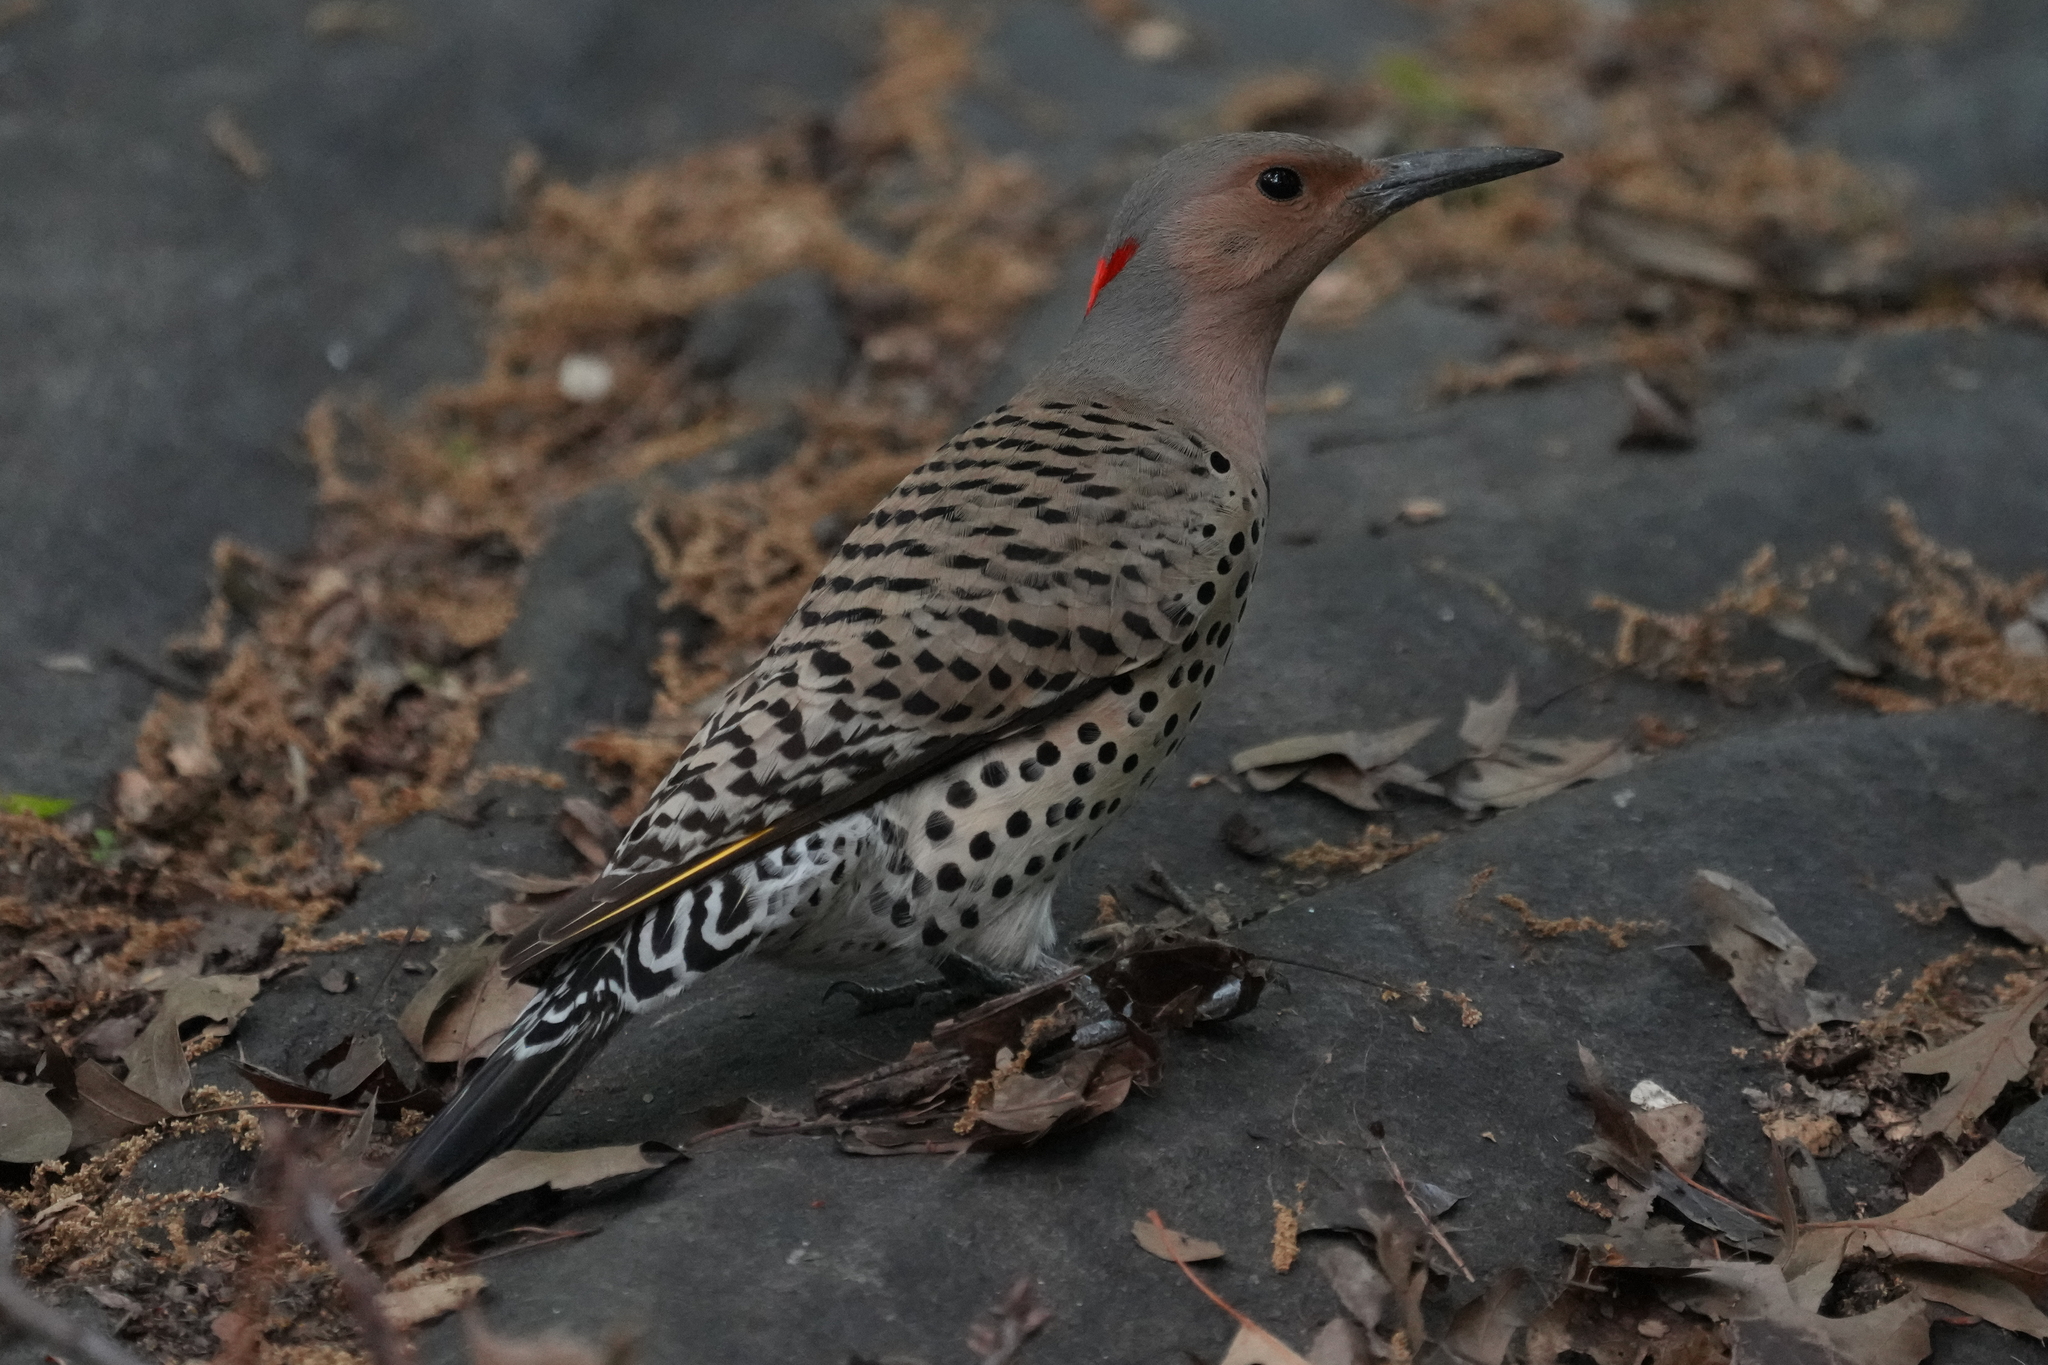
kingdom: Animalia
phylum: Chordata
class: Aves
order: Piciformes
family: Picidae
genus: Colaptes
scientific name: Colaptes auratus
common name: Northern flicker
